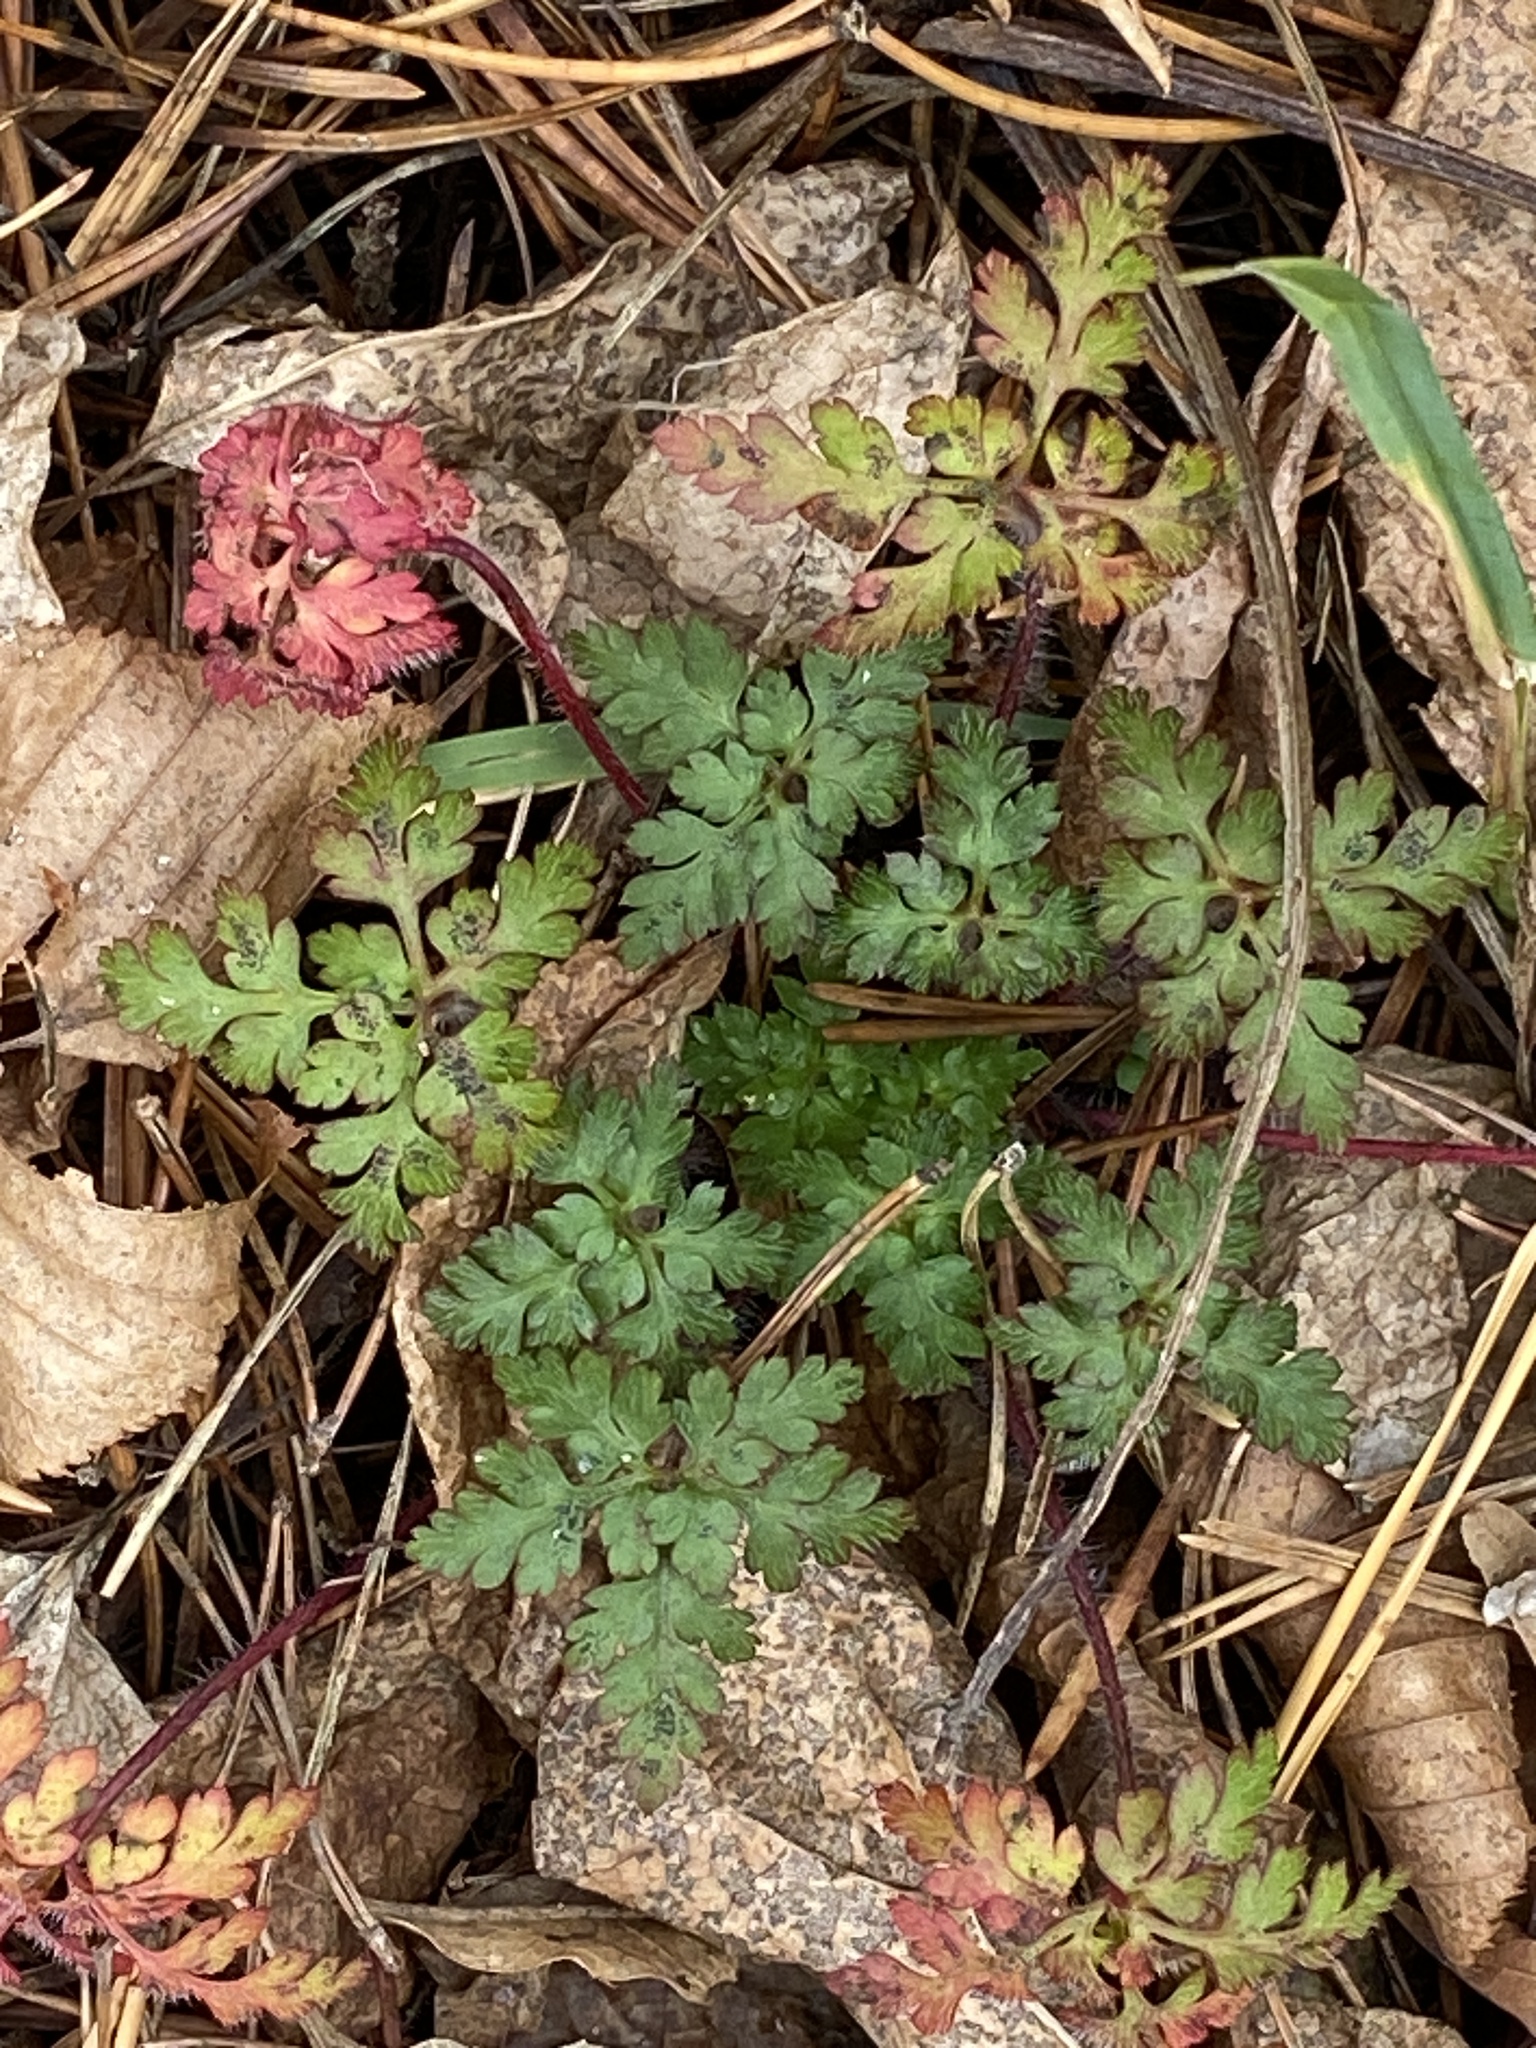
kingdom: Plantae
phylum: Tracheophyta
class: Magnoliopsida
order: Geraniales
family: Geraniaceae
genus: Geranium
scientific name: Geranium robertianum
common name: Herb-robert
